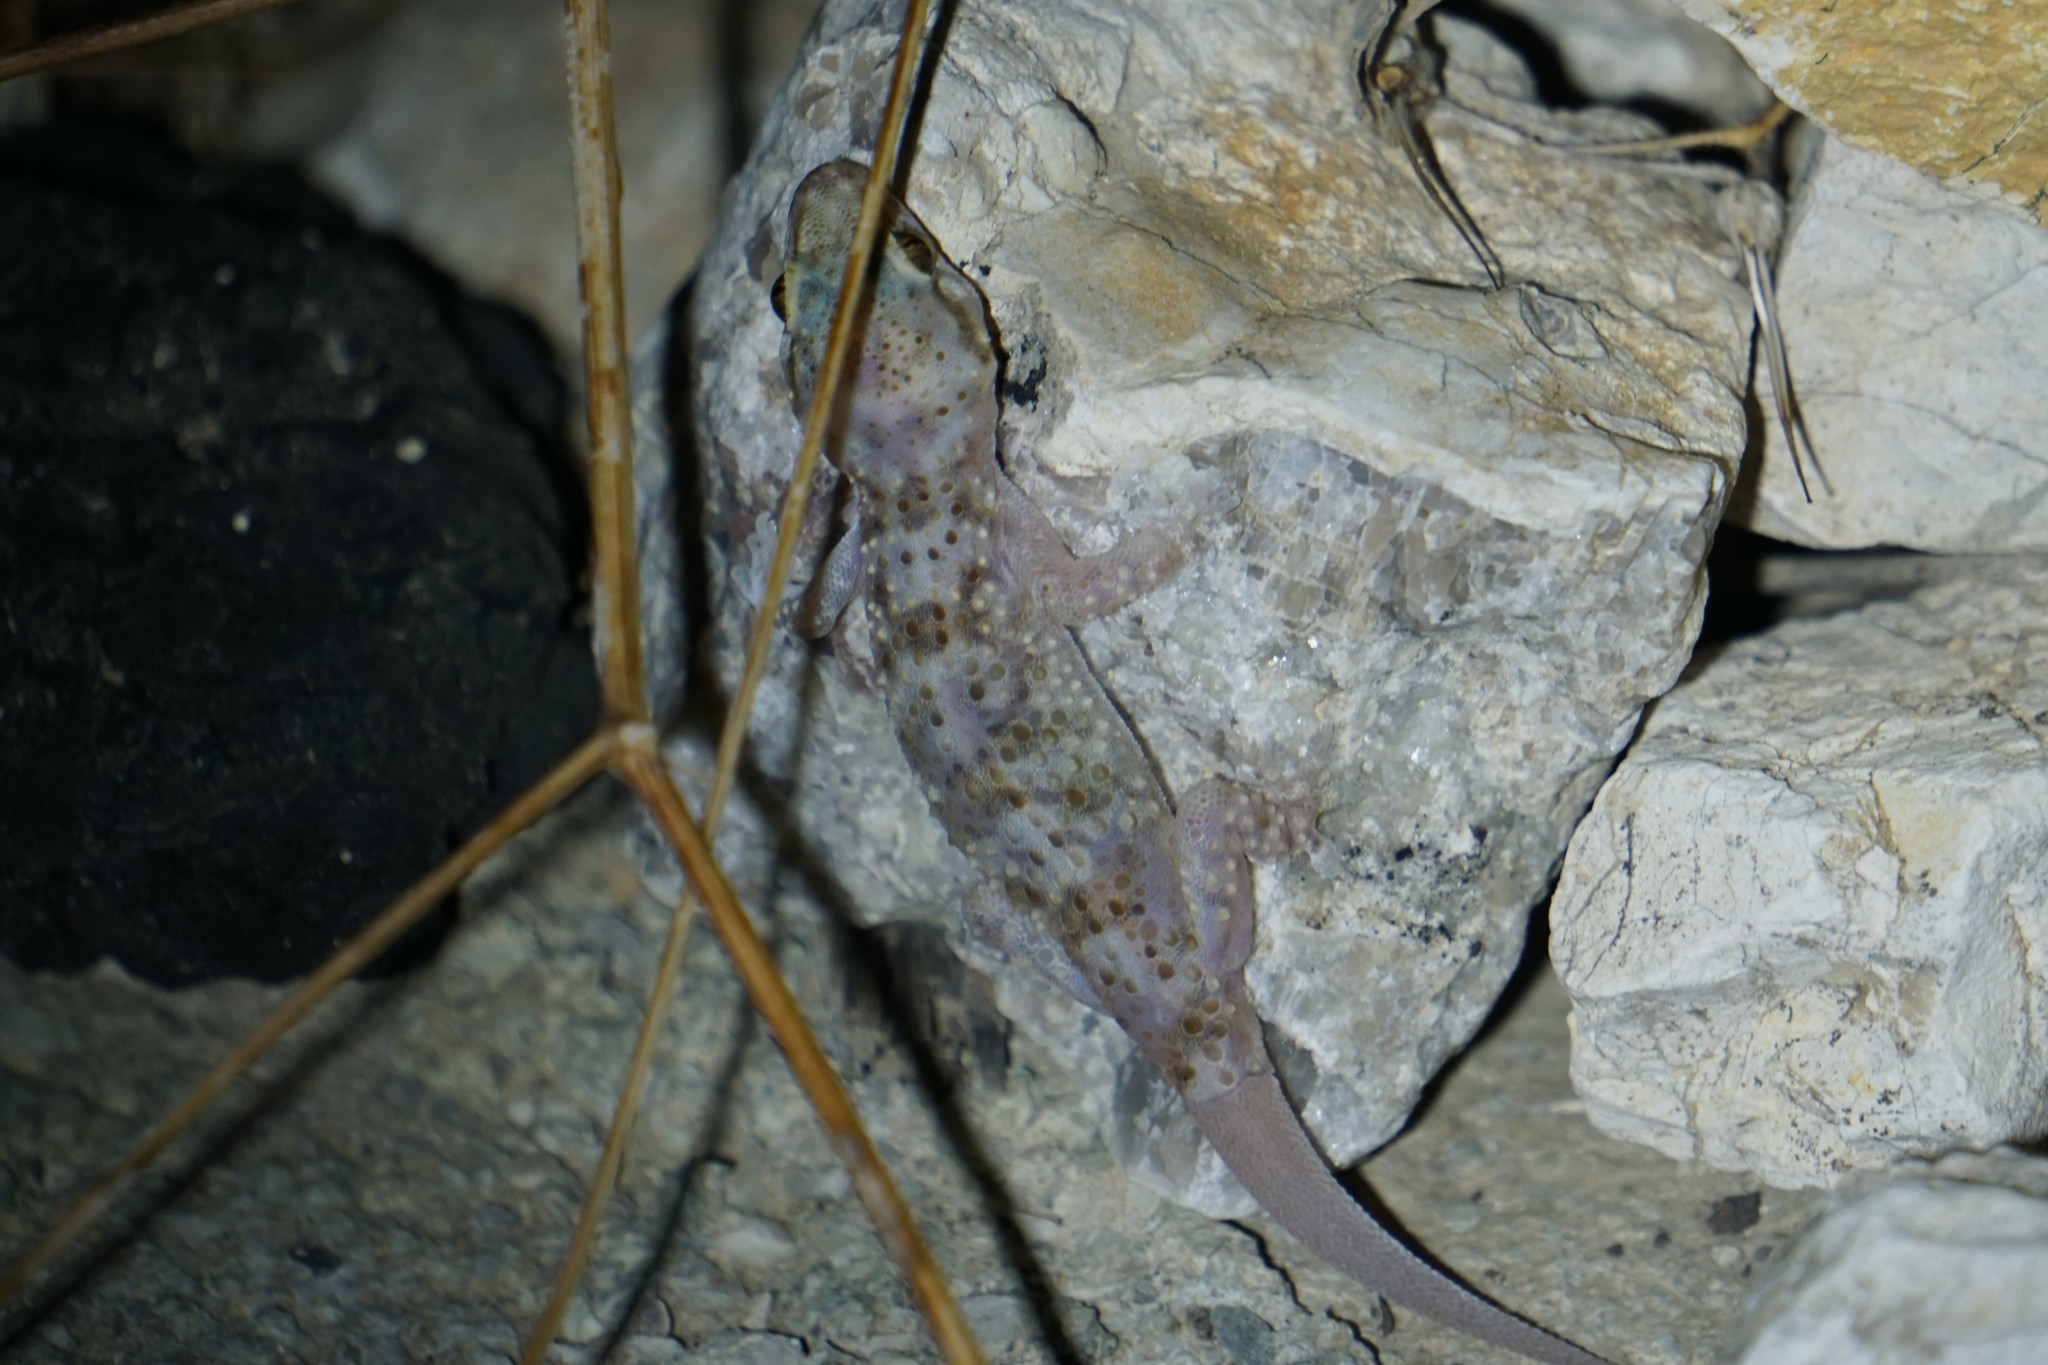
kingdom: Animalia
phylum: Chordata
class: Squamata
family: Gekkonidae
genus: Hemidactylus
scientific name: Hemidactylus turcicus
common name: Turkish gecko
